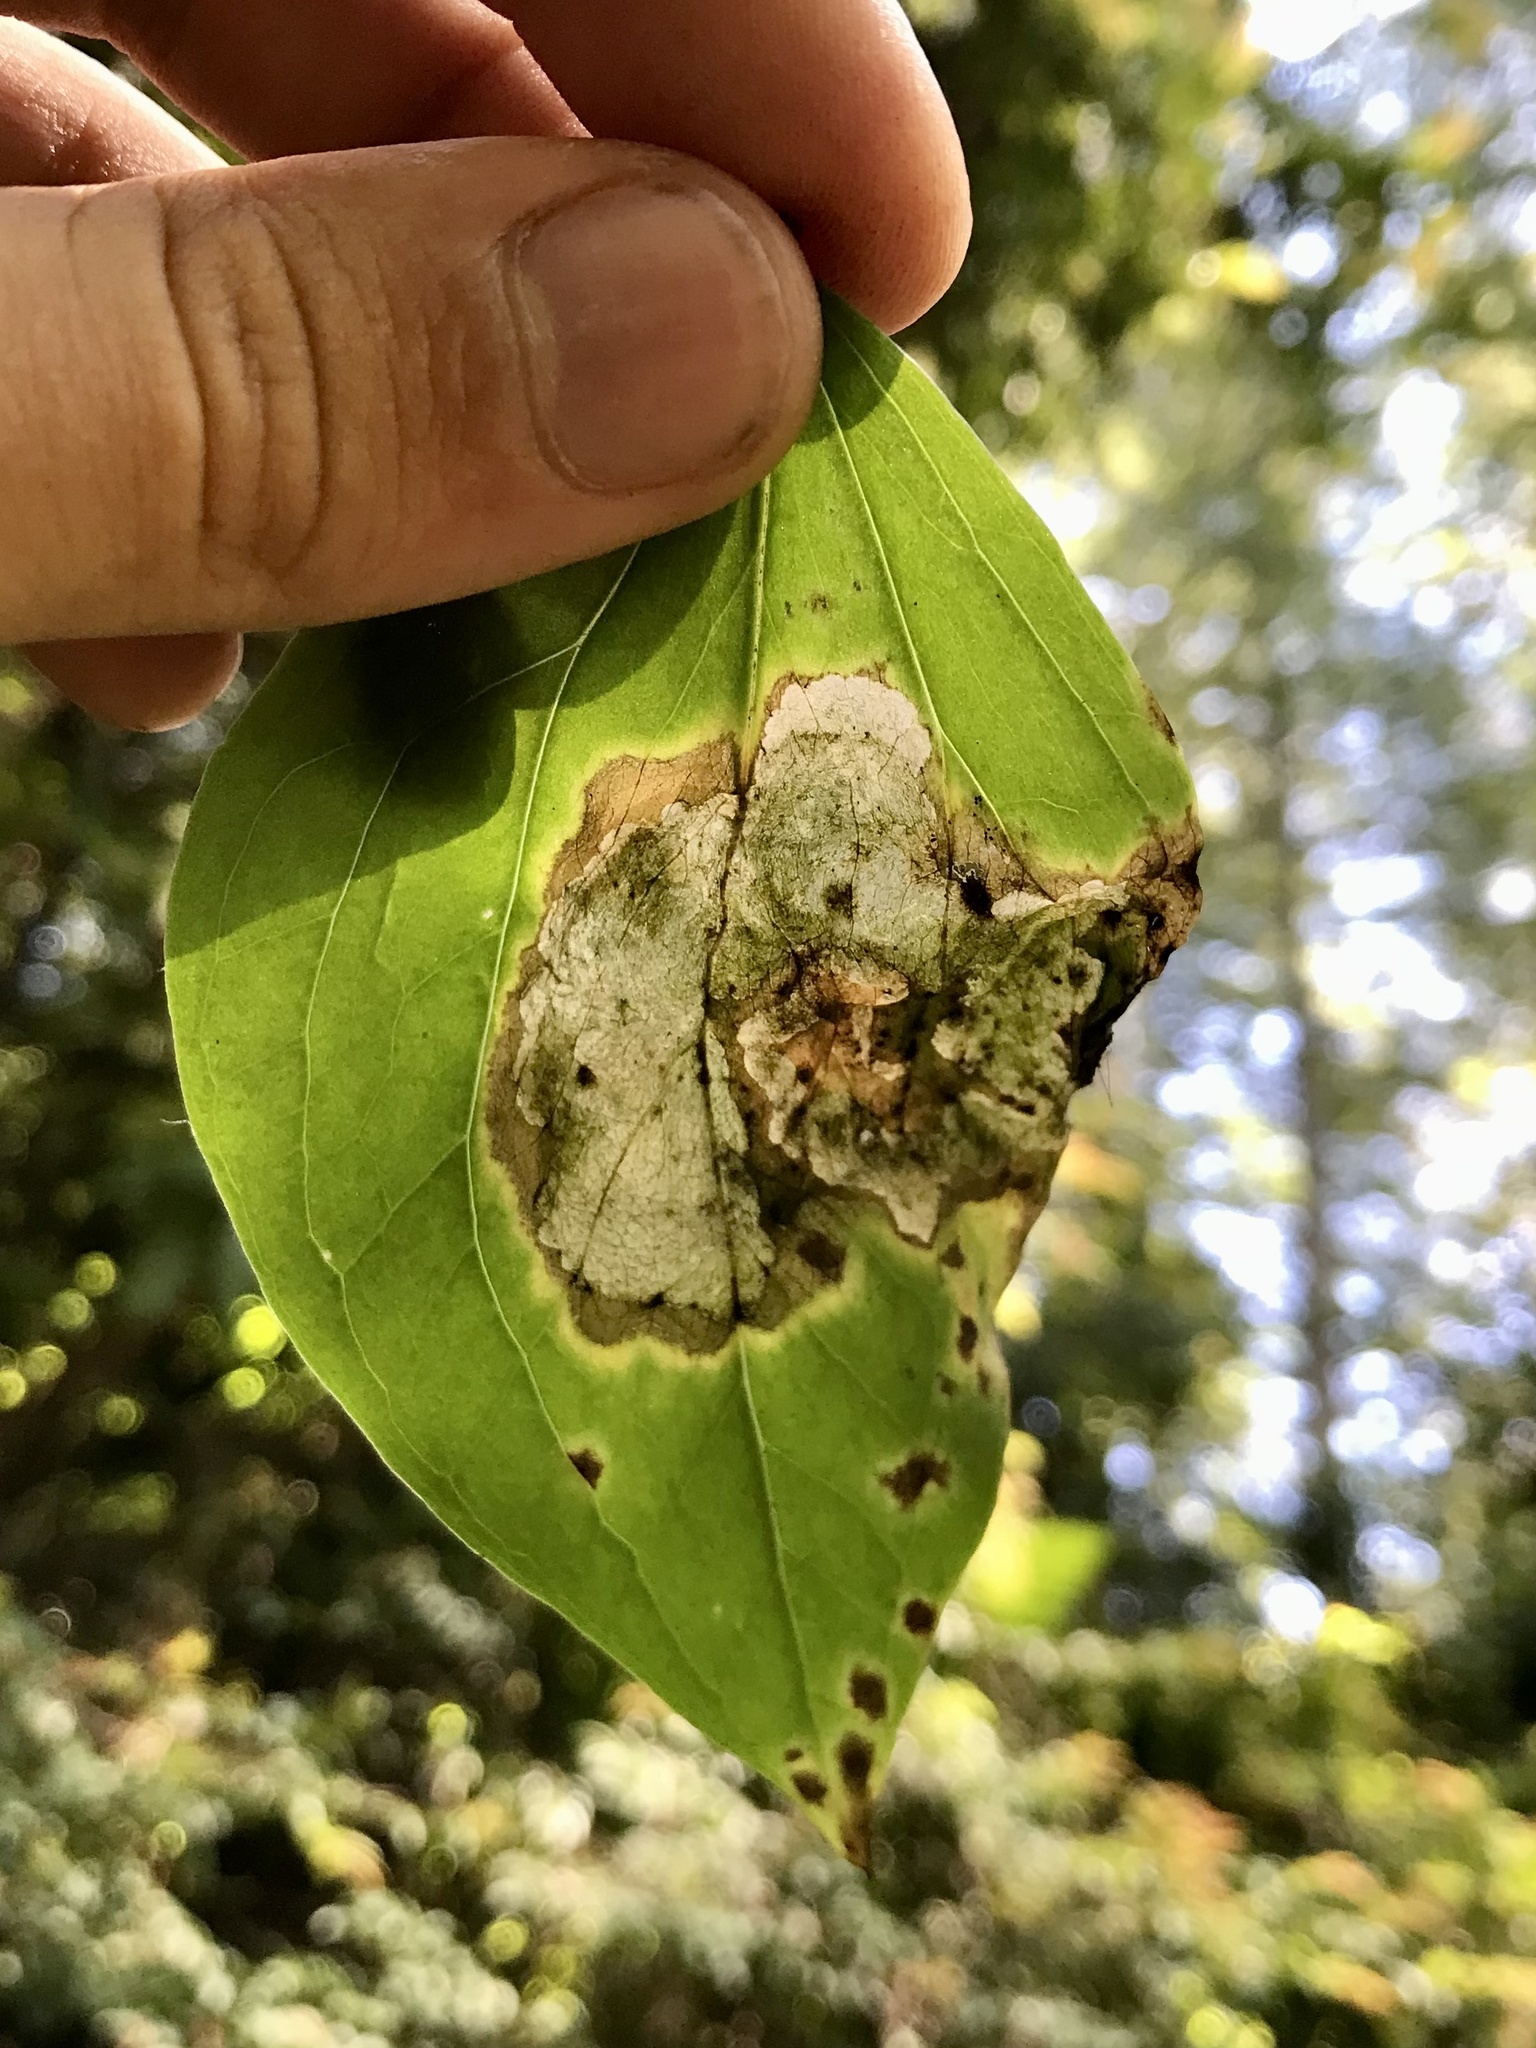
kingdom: Animalia
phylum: Arthropoda
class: Insecta
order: Diptera
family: Scathophagidae
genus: Leptopa
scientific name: Leptopa
